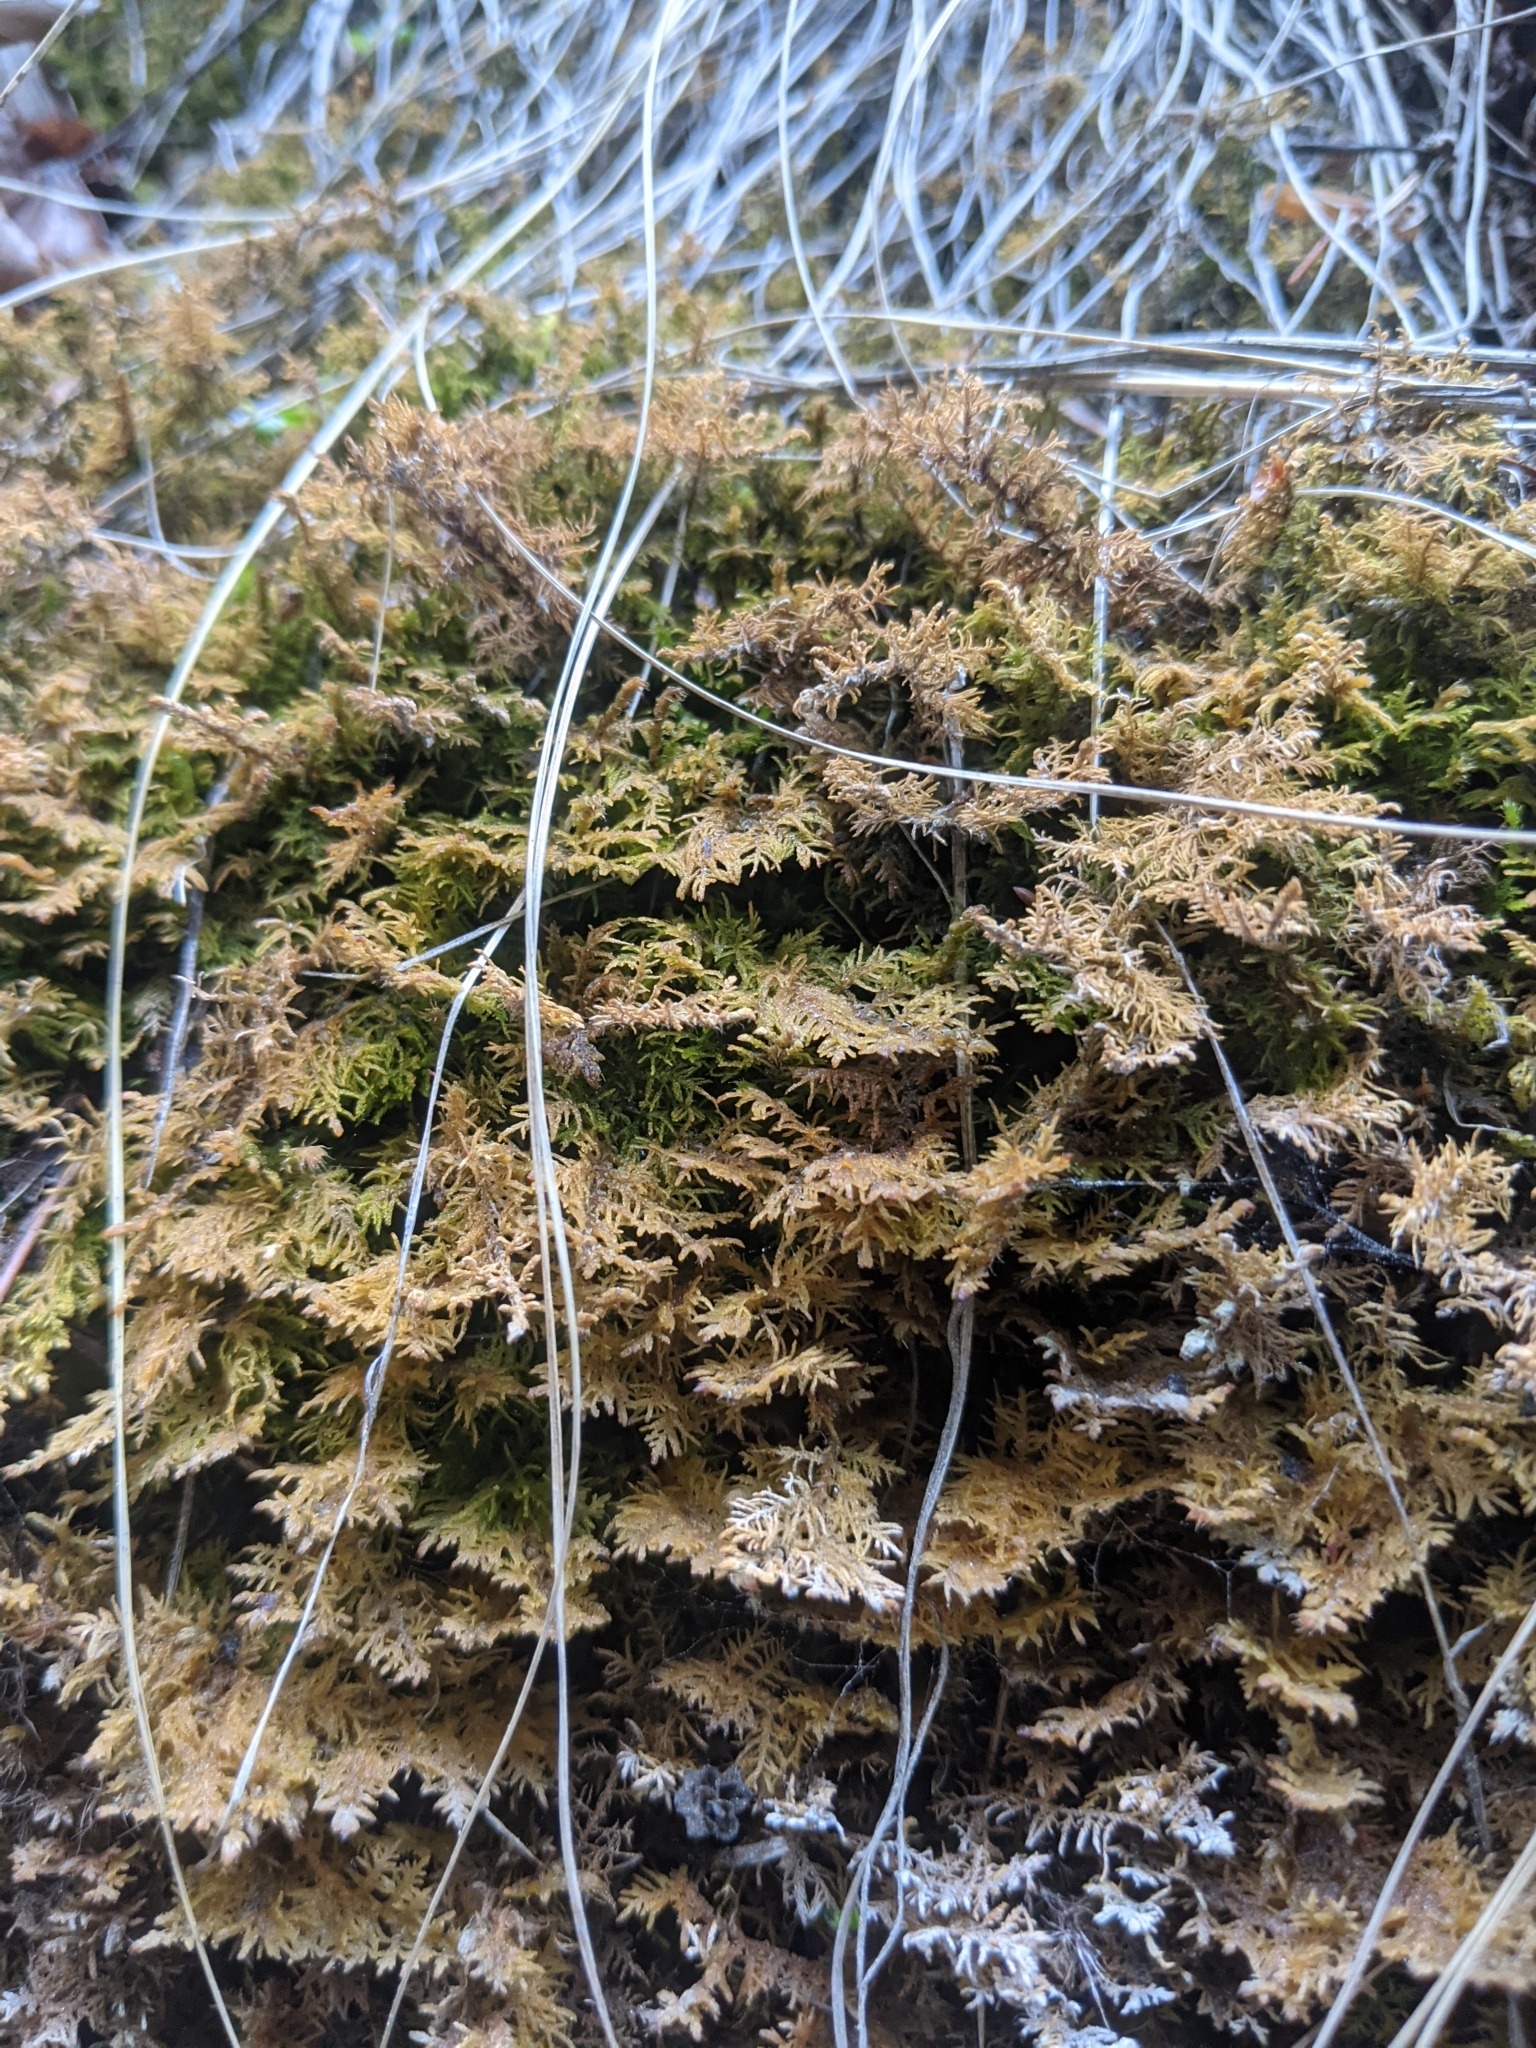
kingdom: Plantae
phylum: Bryophyta
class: Bryopsida
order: Hypnales
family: Hylocomiaceae
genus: Hylocomium
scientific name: Hylocomium splendens
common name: Stairstep moss
